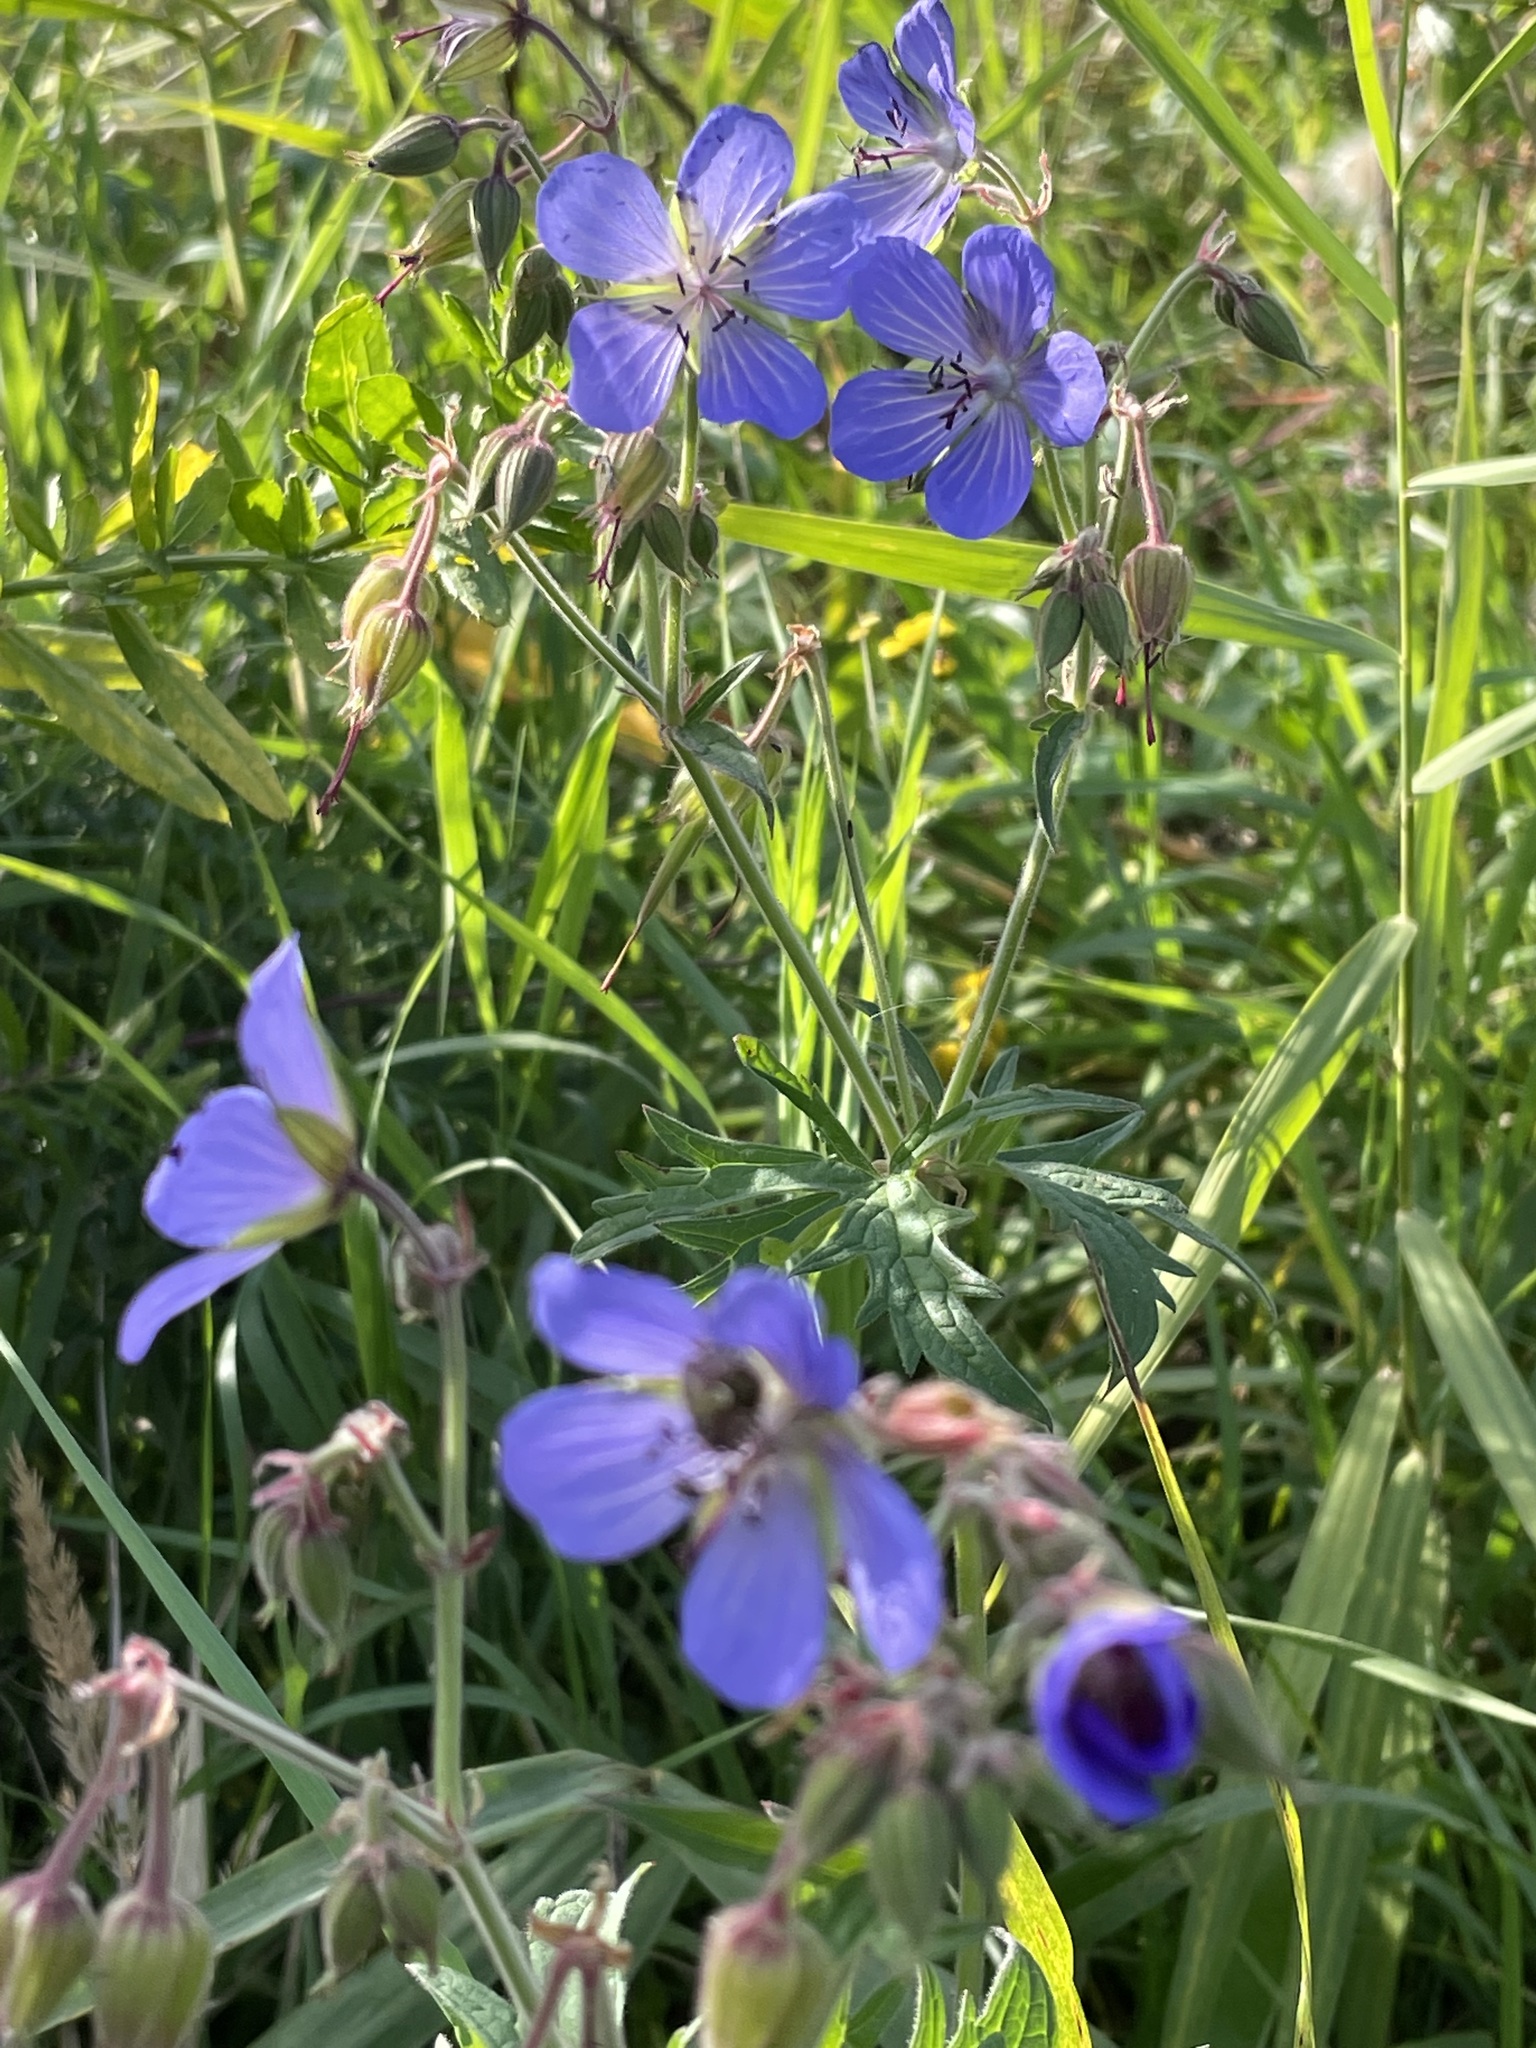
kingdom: Plantae
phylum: Tracheophyta
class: Magnoliopsida
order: Geraniales
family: Geraniaceae
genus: Geranium
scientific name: Geranium pratense
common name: Meadow crane's-bill
